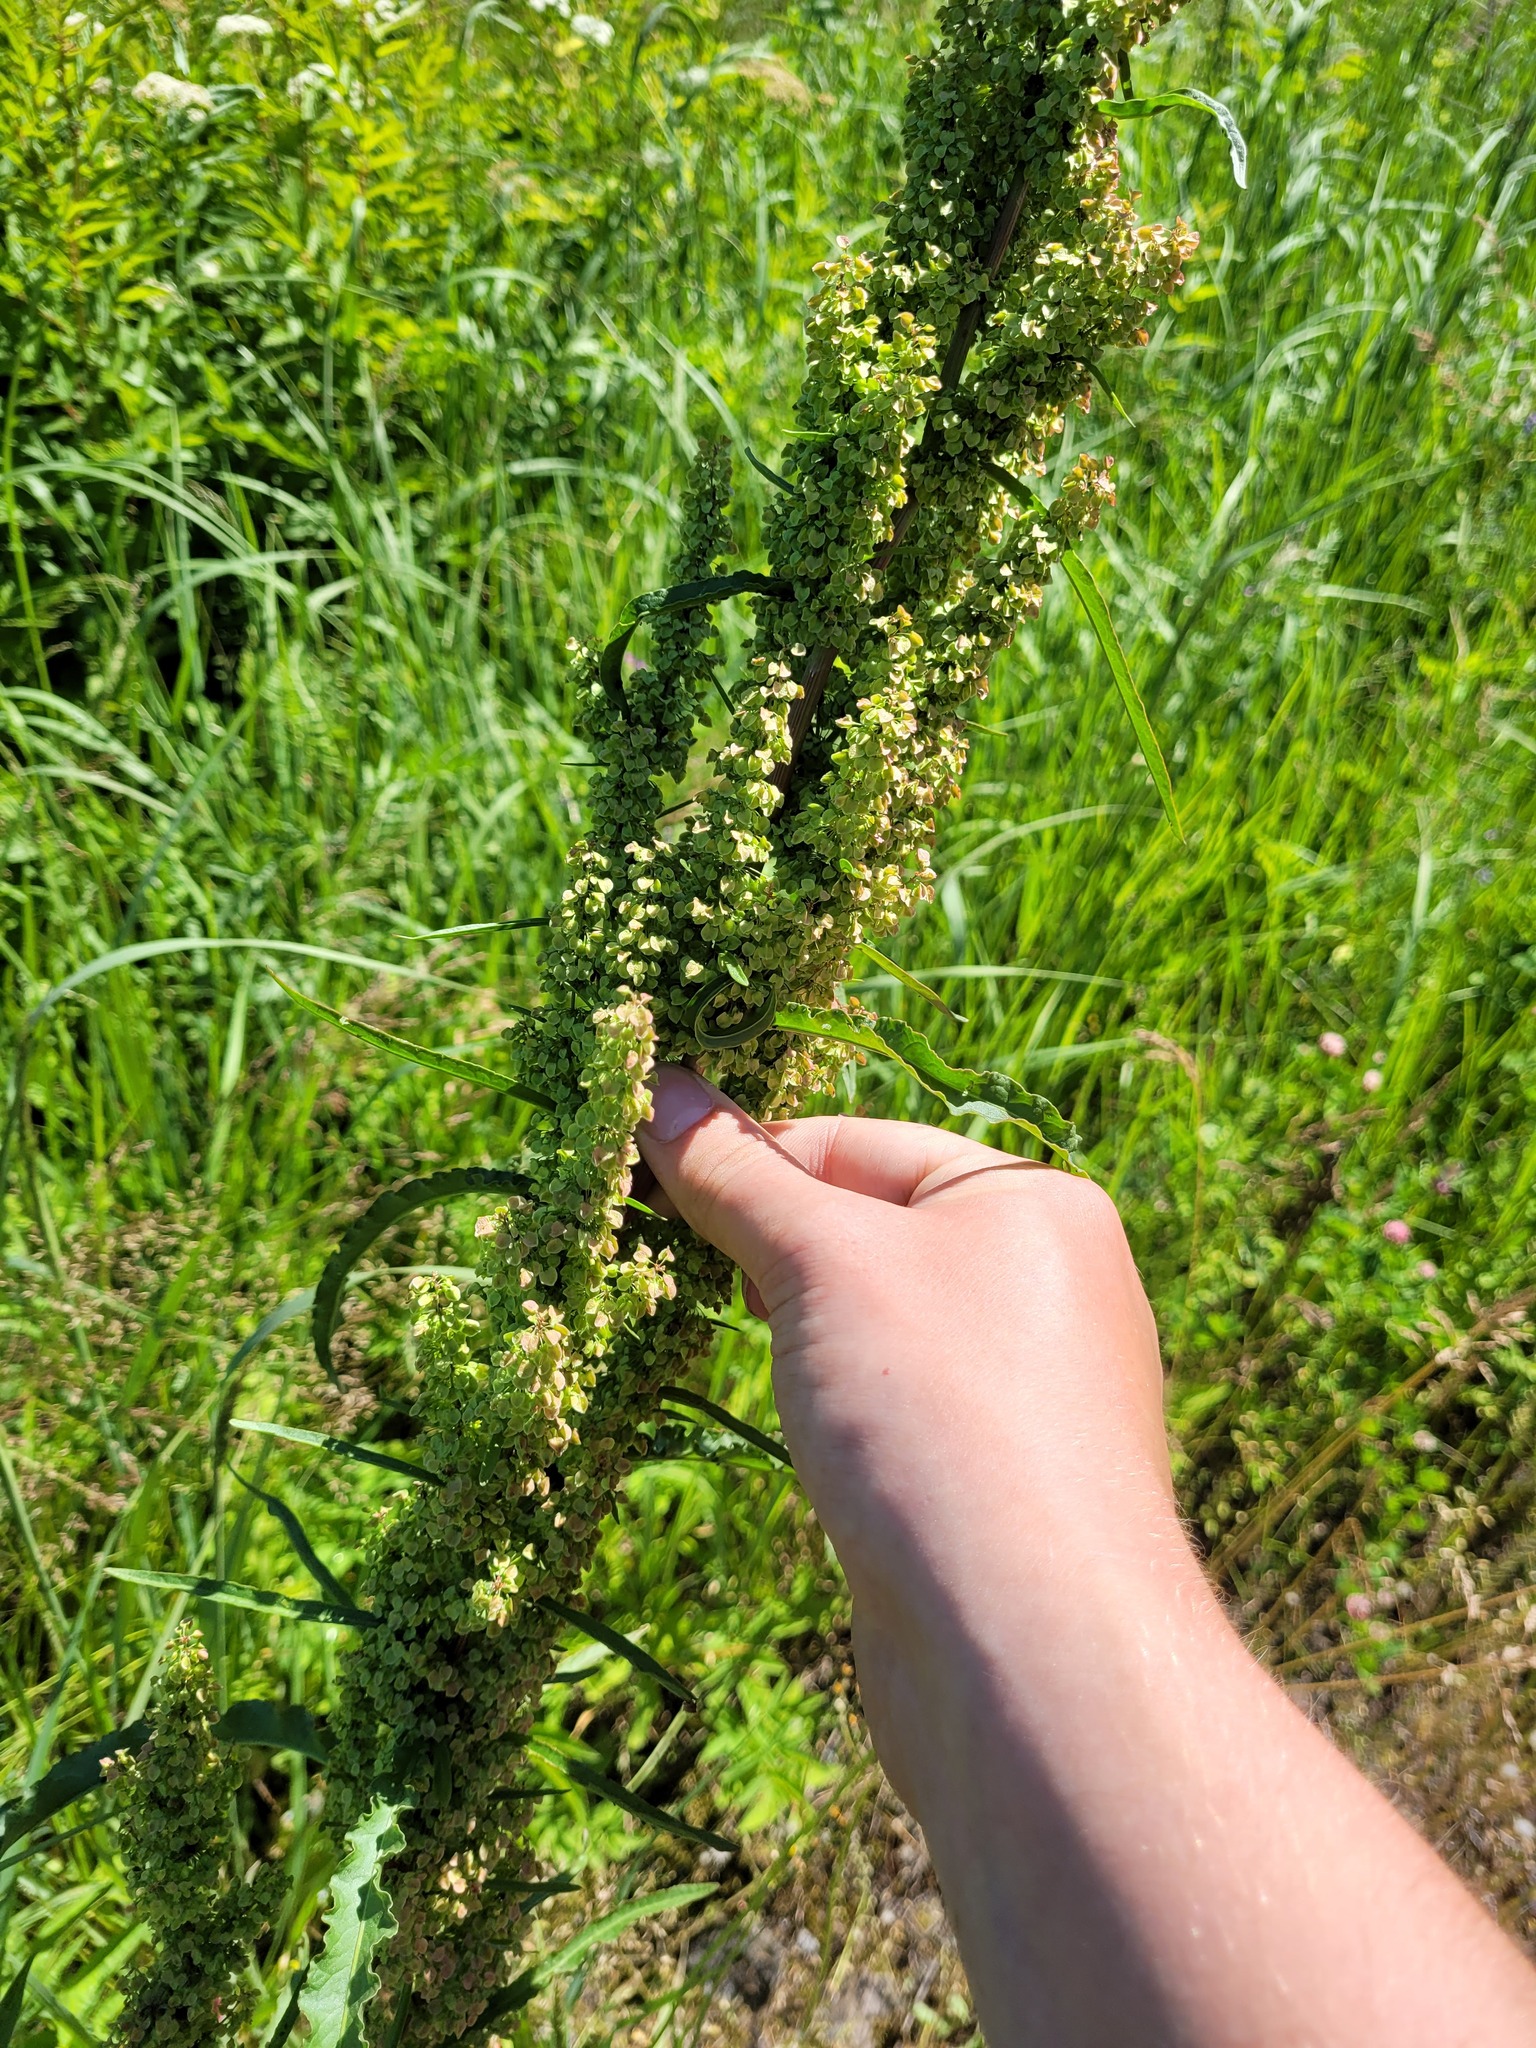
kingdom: Plantae
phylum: Tracheophyta
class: Magnoliopsida
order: Caryophyllales
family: Polygonaceae
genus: Rumex
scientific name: Rumex pseudonatronatus
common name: Field dock
